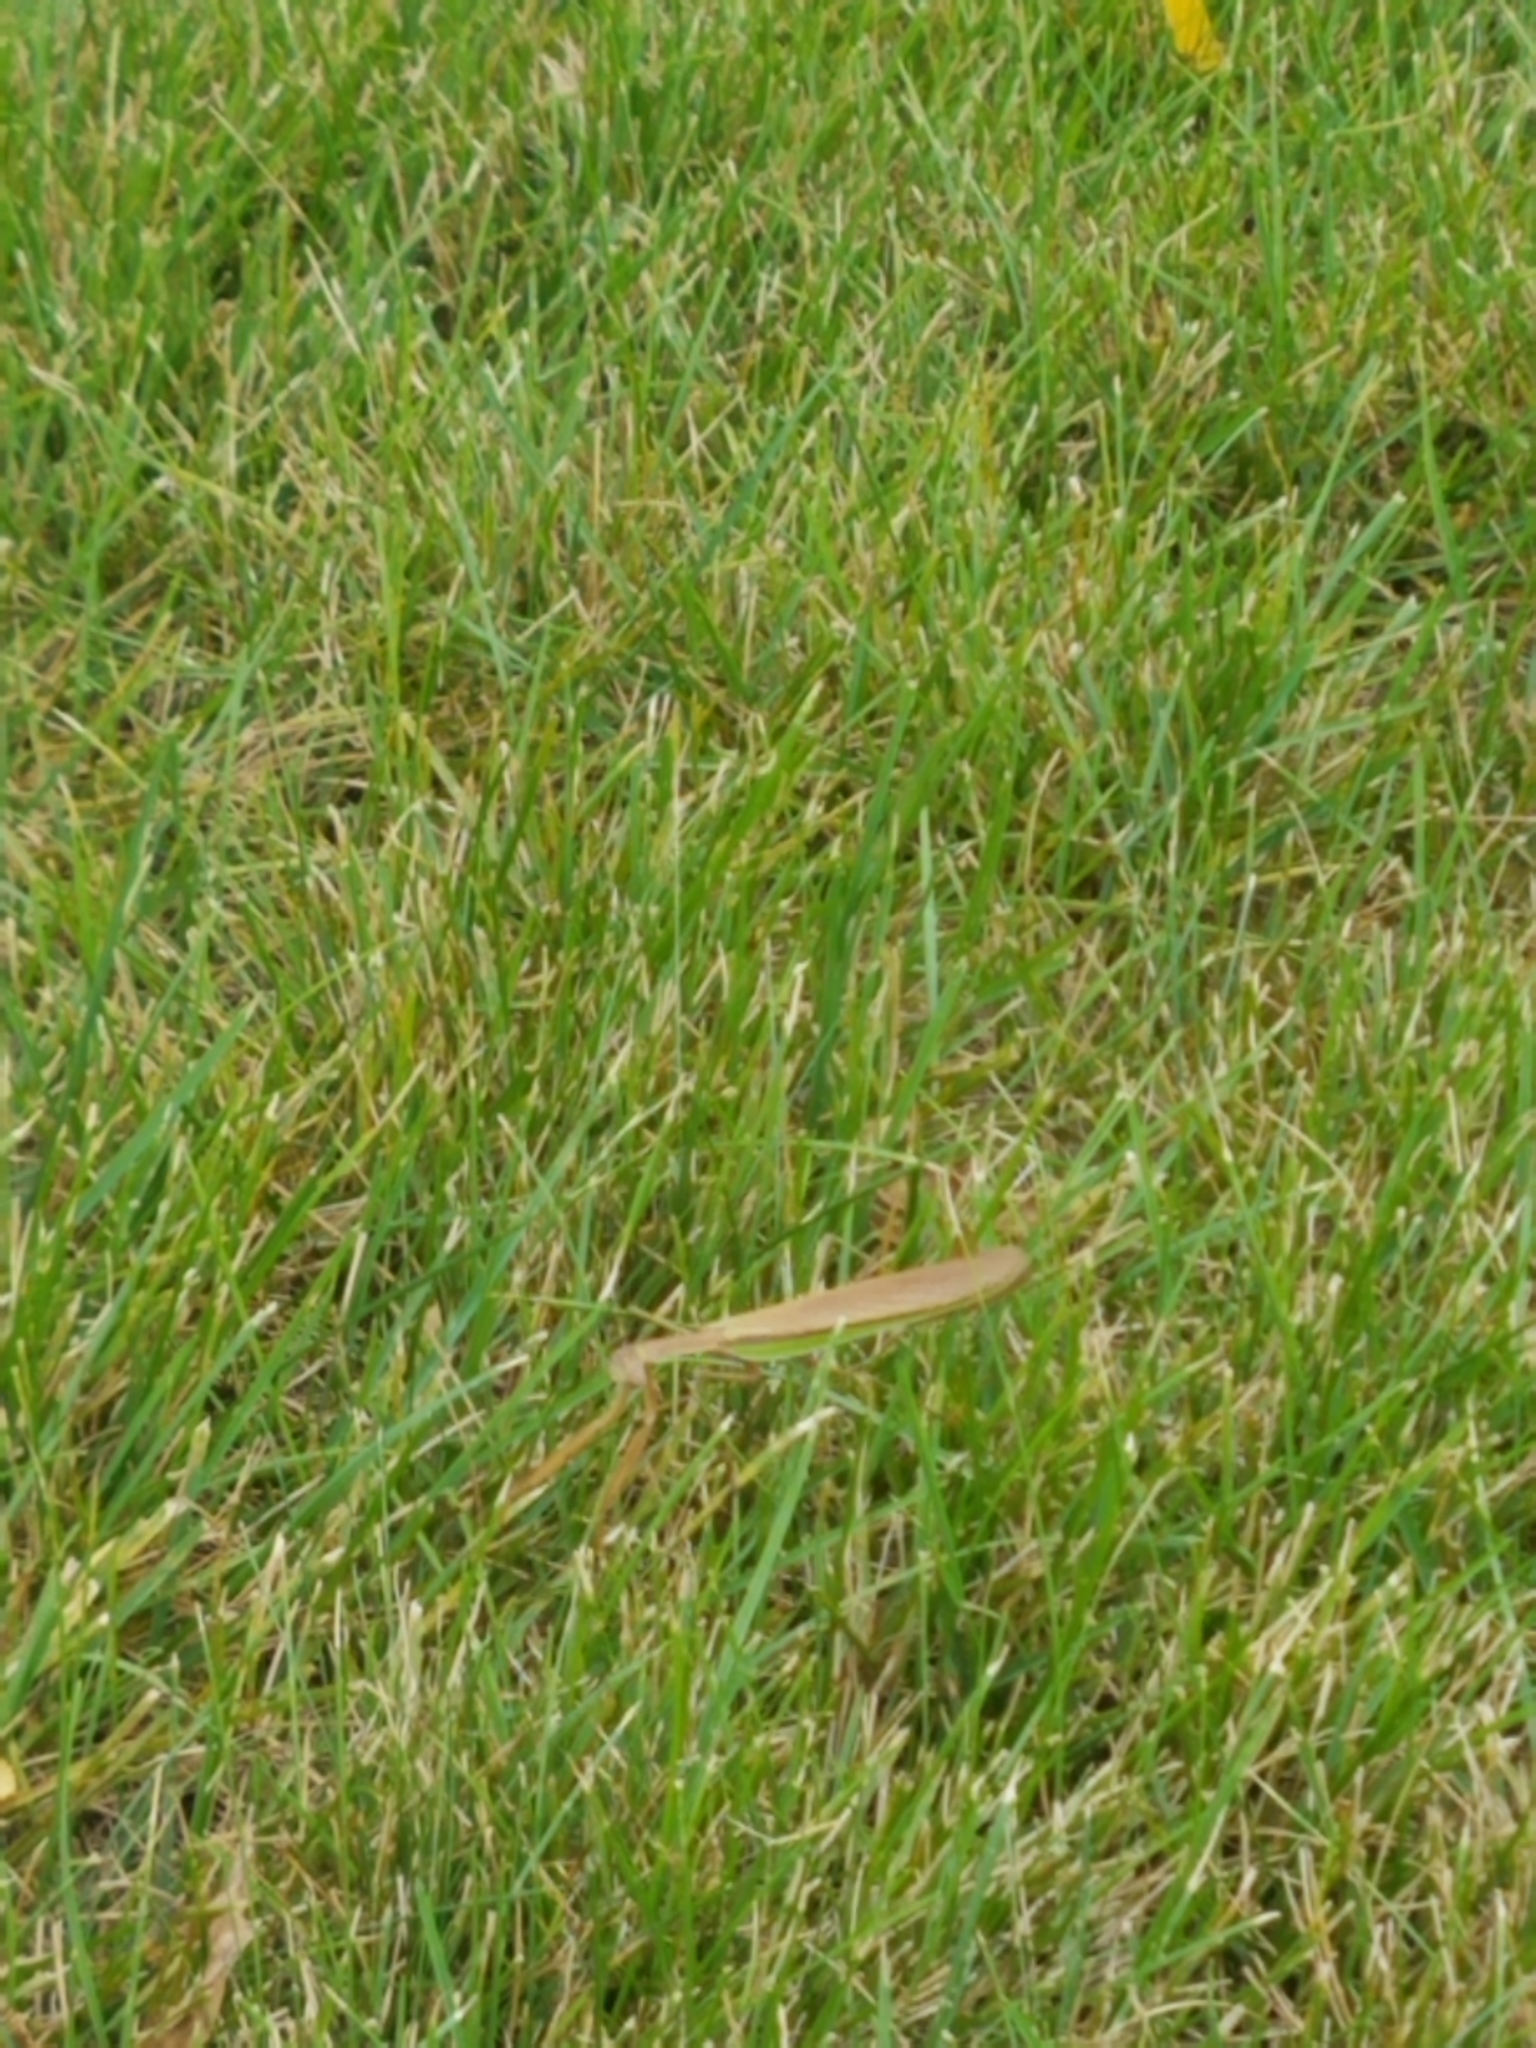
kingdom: Animalia
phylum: Arthropoda
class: Insecta
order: Mantodea
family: Mantidae
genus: Tenodera
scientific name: Tenodera sinensis
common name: Chinese mantis
